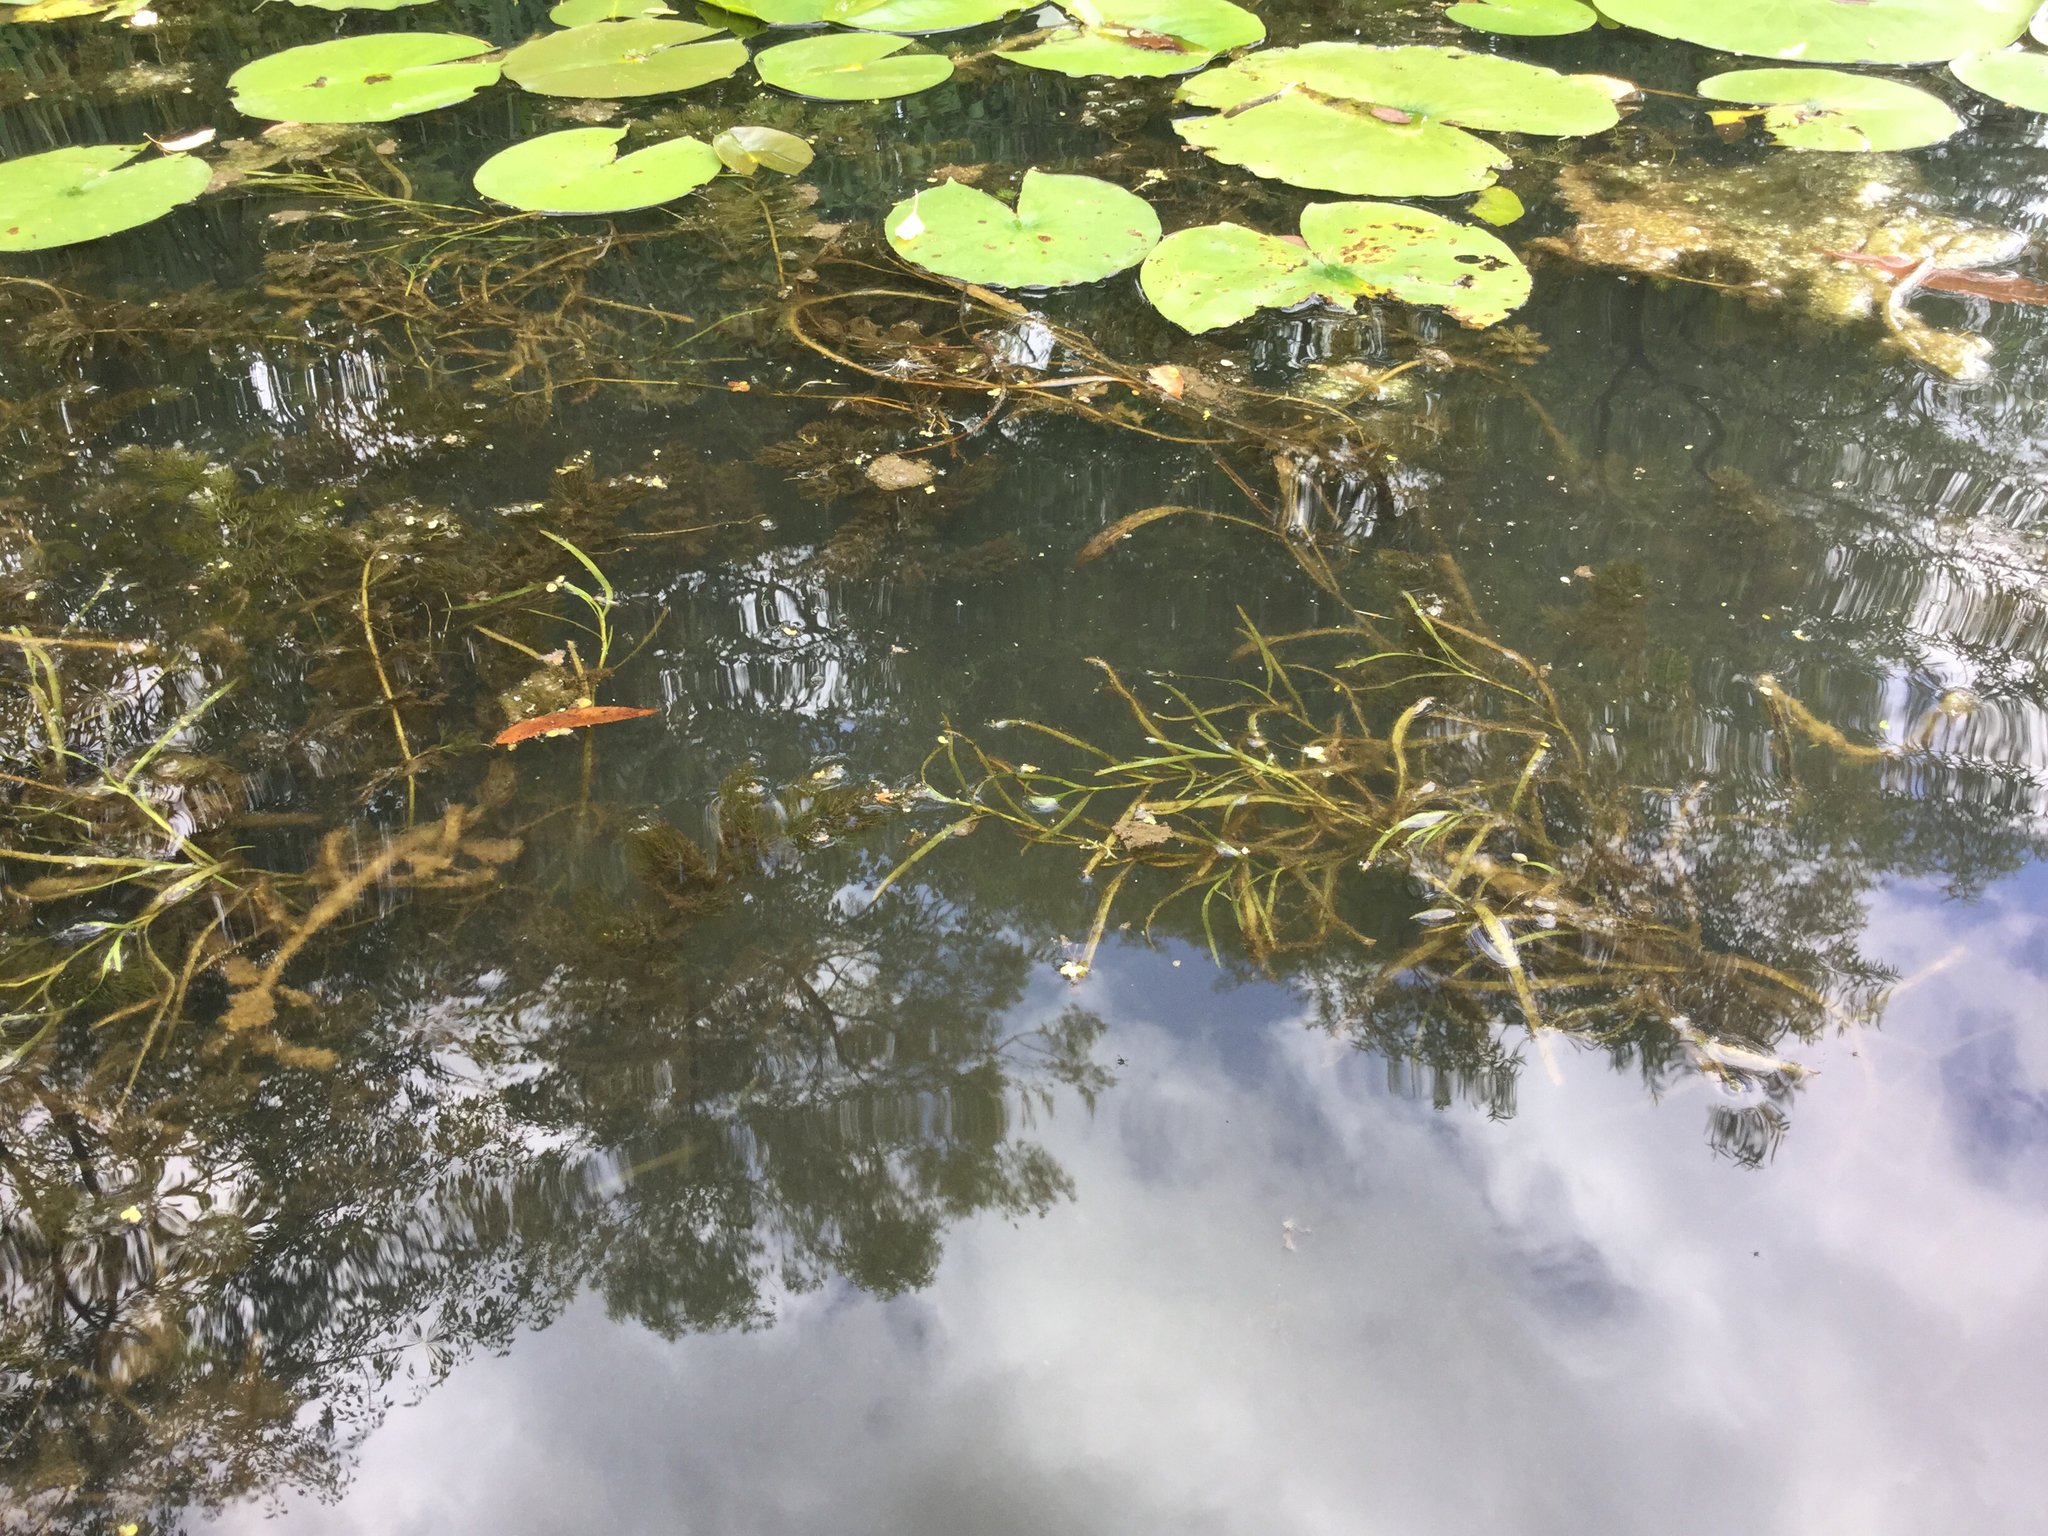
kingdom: Plantae
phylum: Tracheophyta
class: Liliopsida
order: Commelinales
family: Pontederiaceae
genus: Heteranthera
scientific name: Heteranthera dubia
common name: Grass-leaved mud plantain
